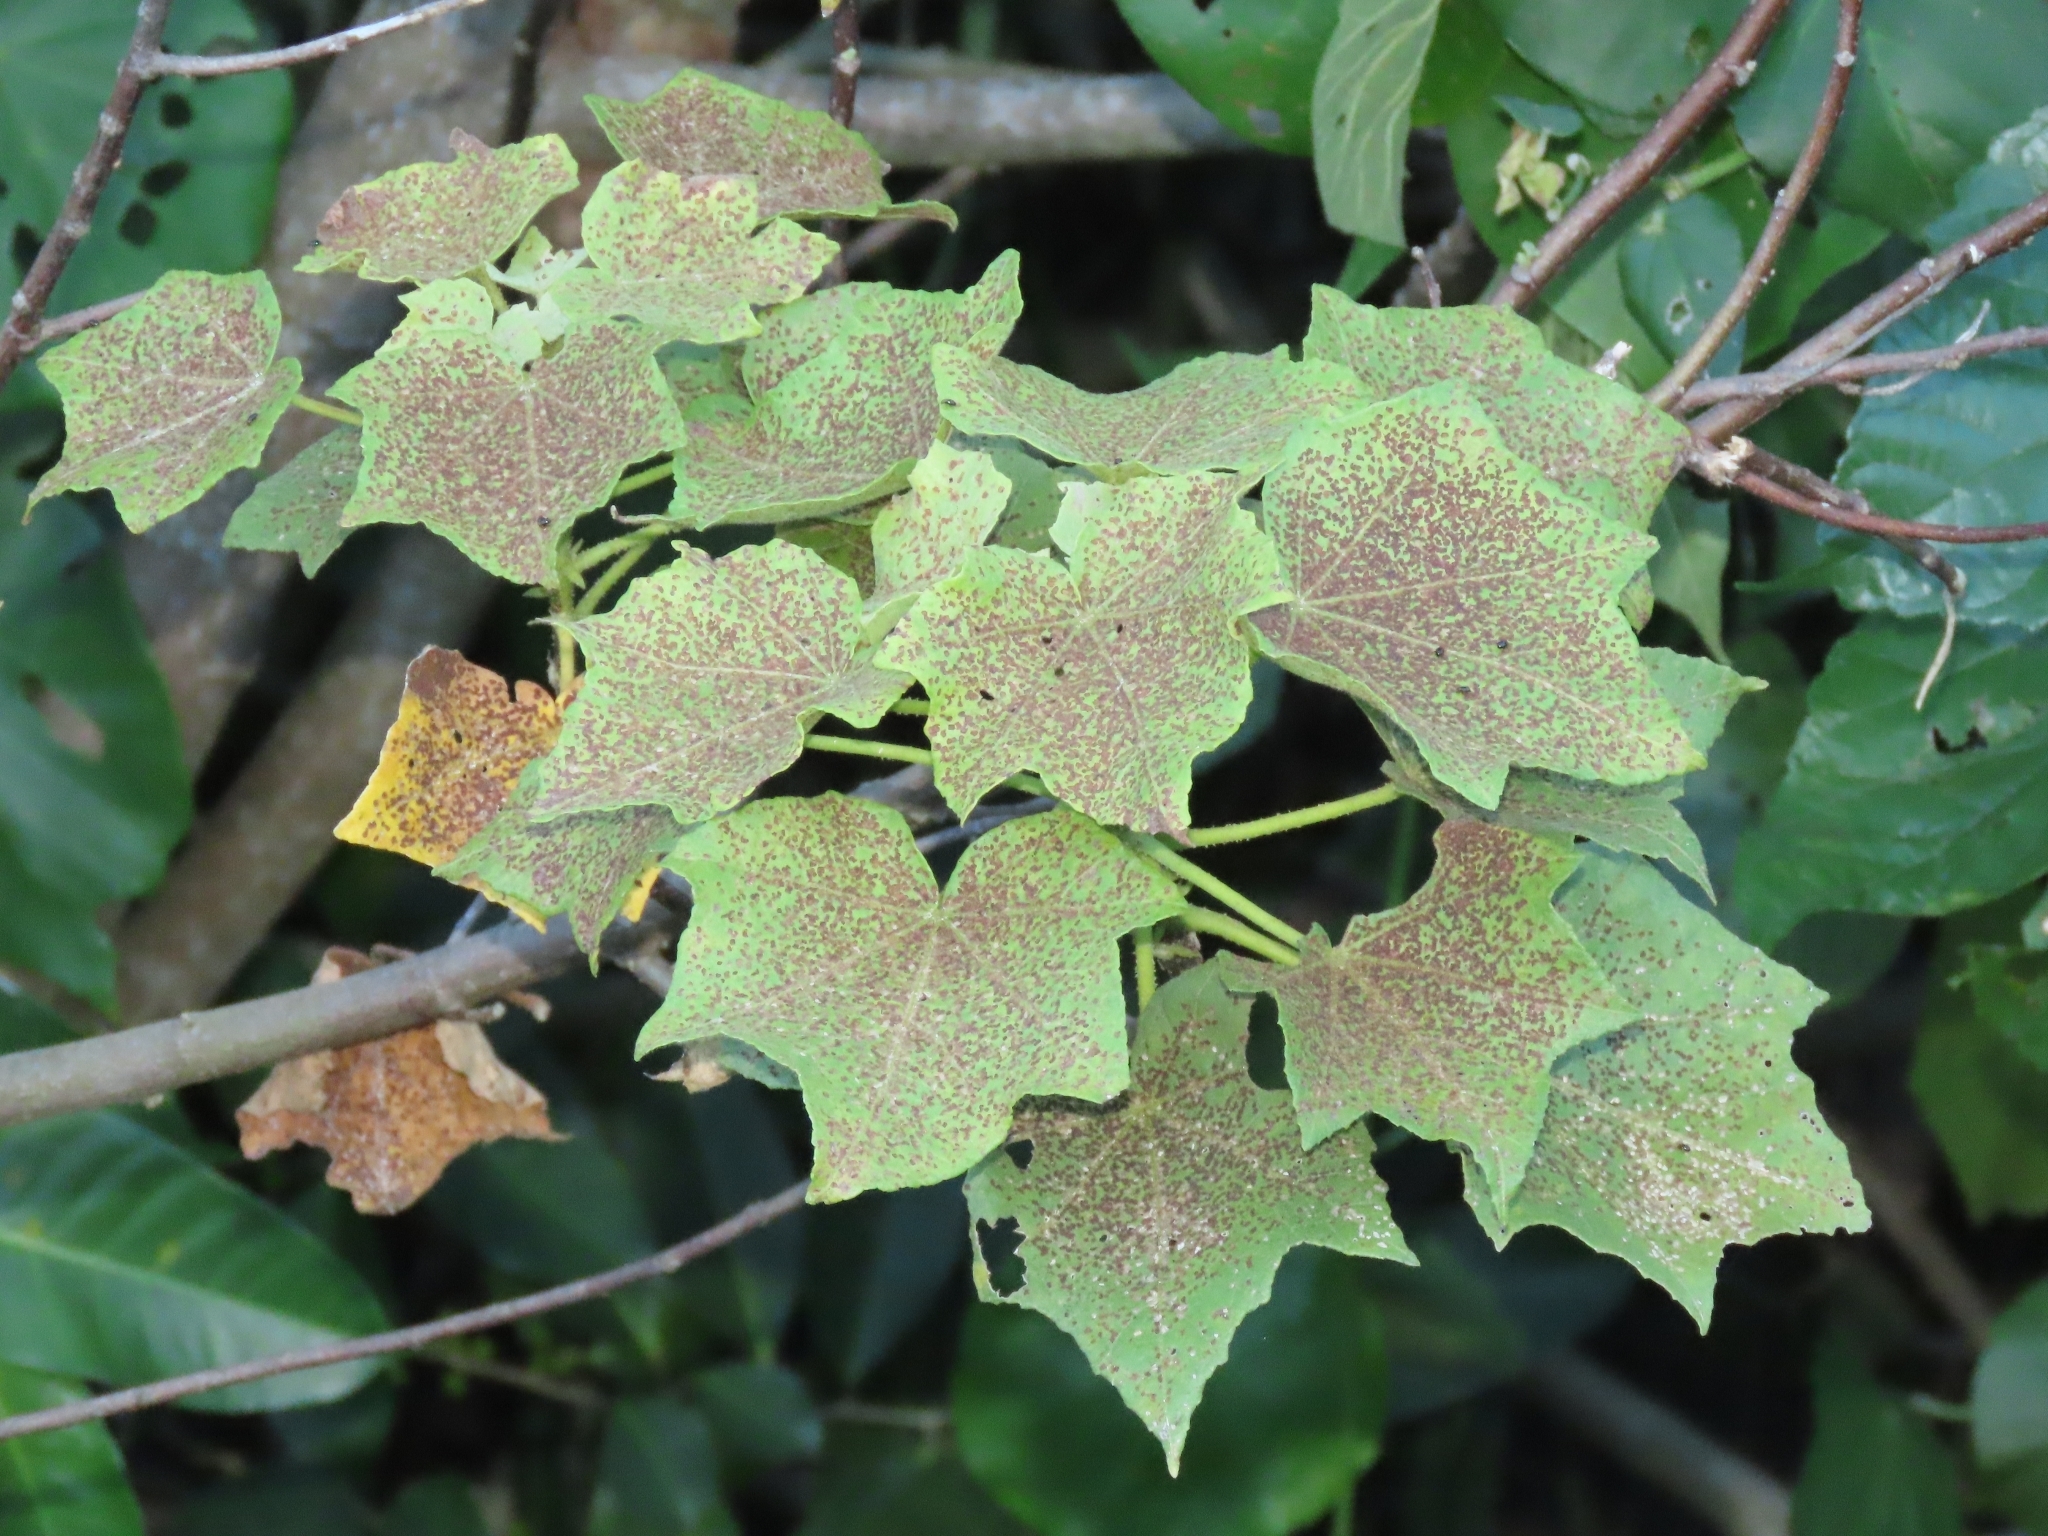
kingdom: Plantae
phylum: Tracheophyta
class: Magnoliopsida
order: Malvales
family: Malvaceae
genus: Hibiscus
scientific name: Hibiscus makinoi
